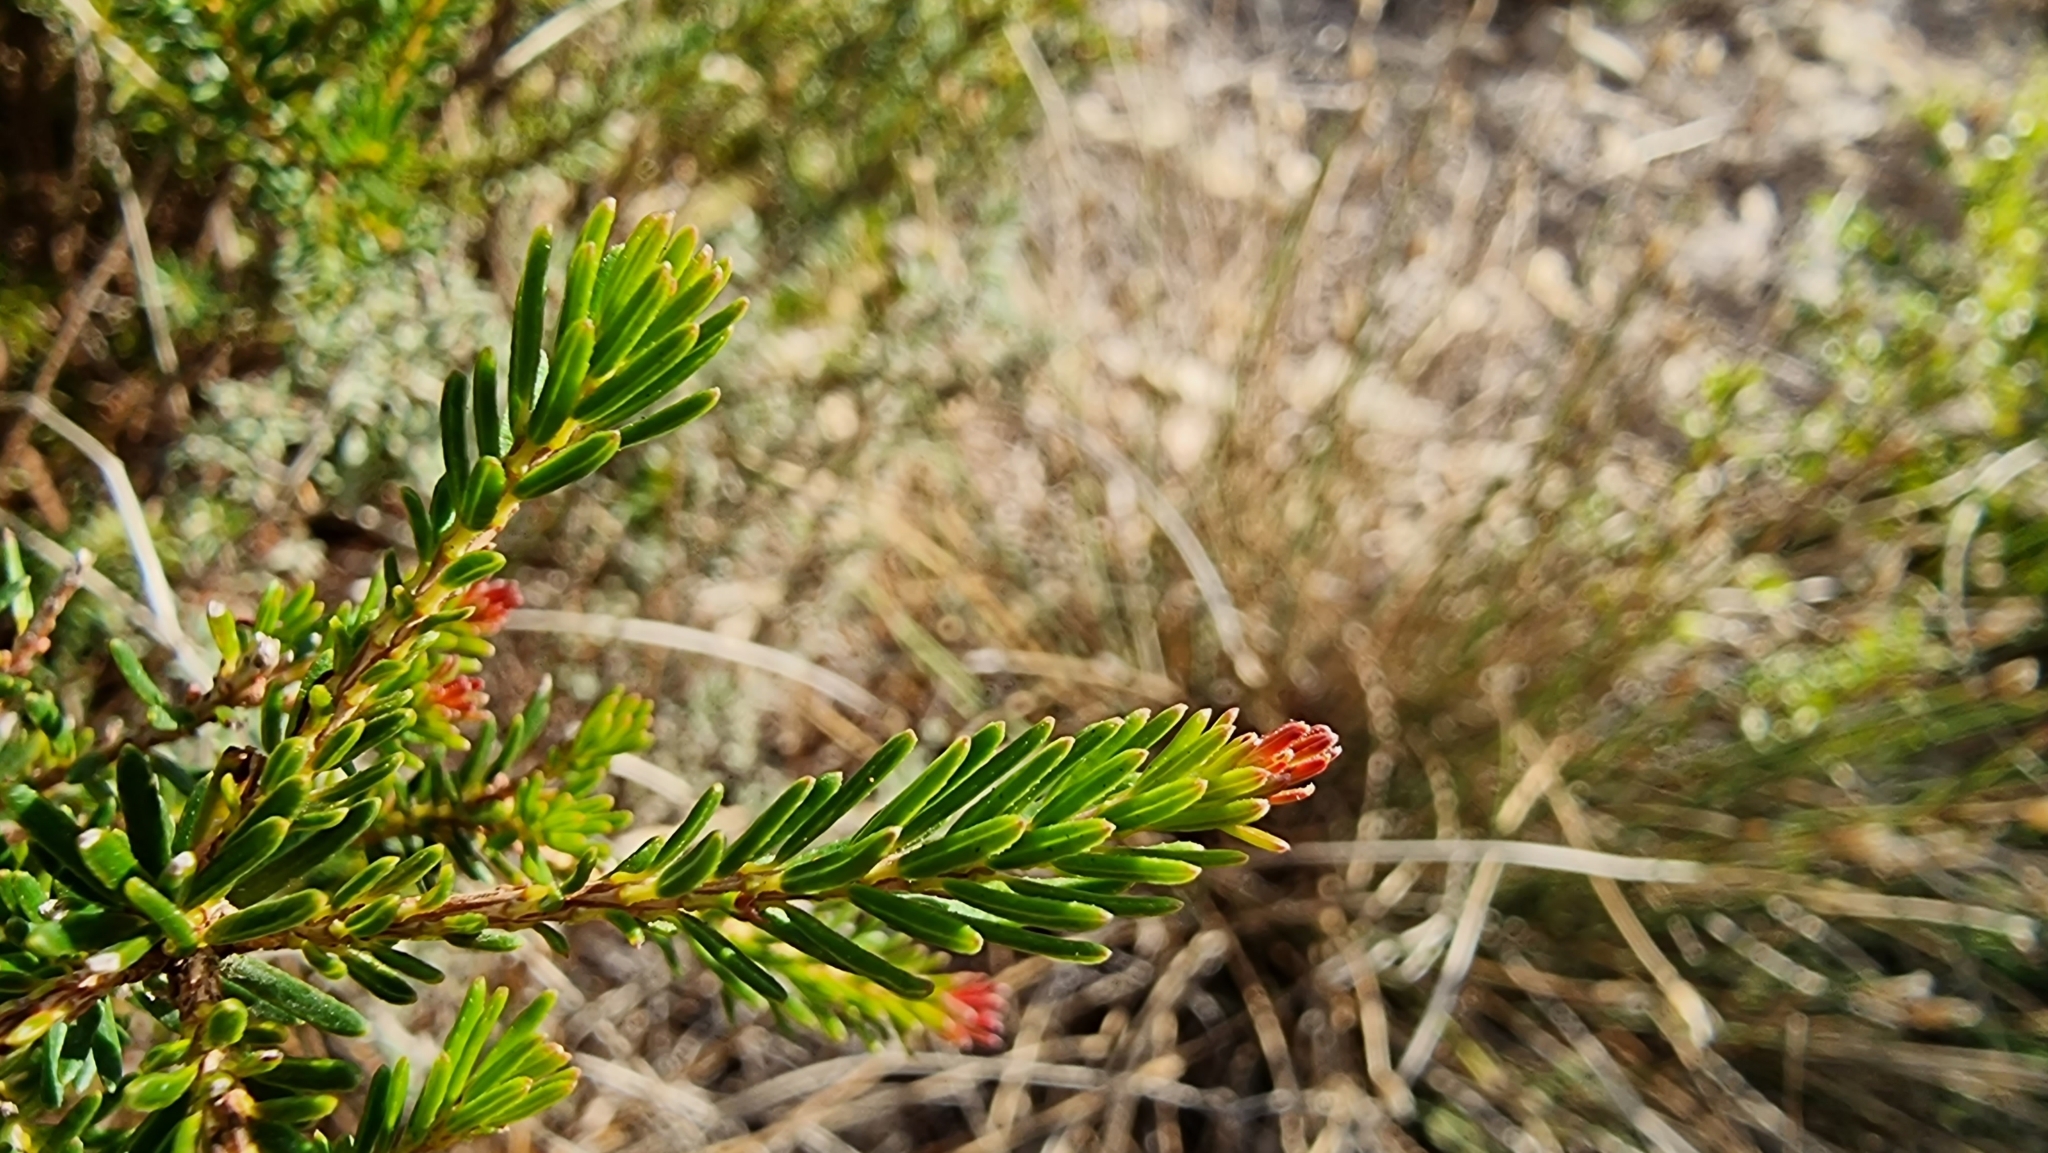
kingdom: Plantae
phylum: Tracheophyta
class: Magnoliopsida
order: Ericales
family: Ericaceae
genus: Erica
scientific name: Erica multiflora
